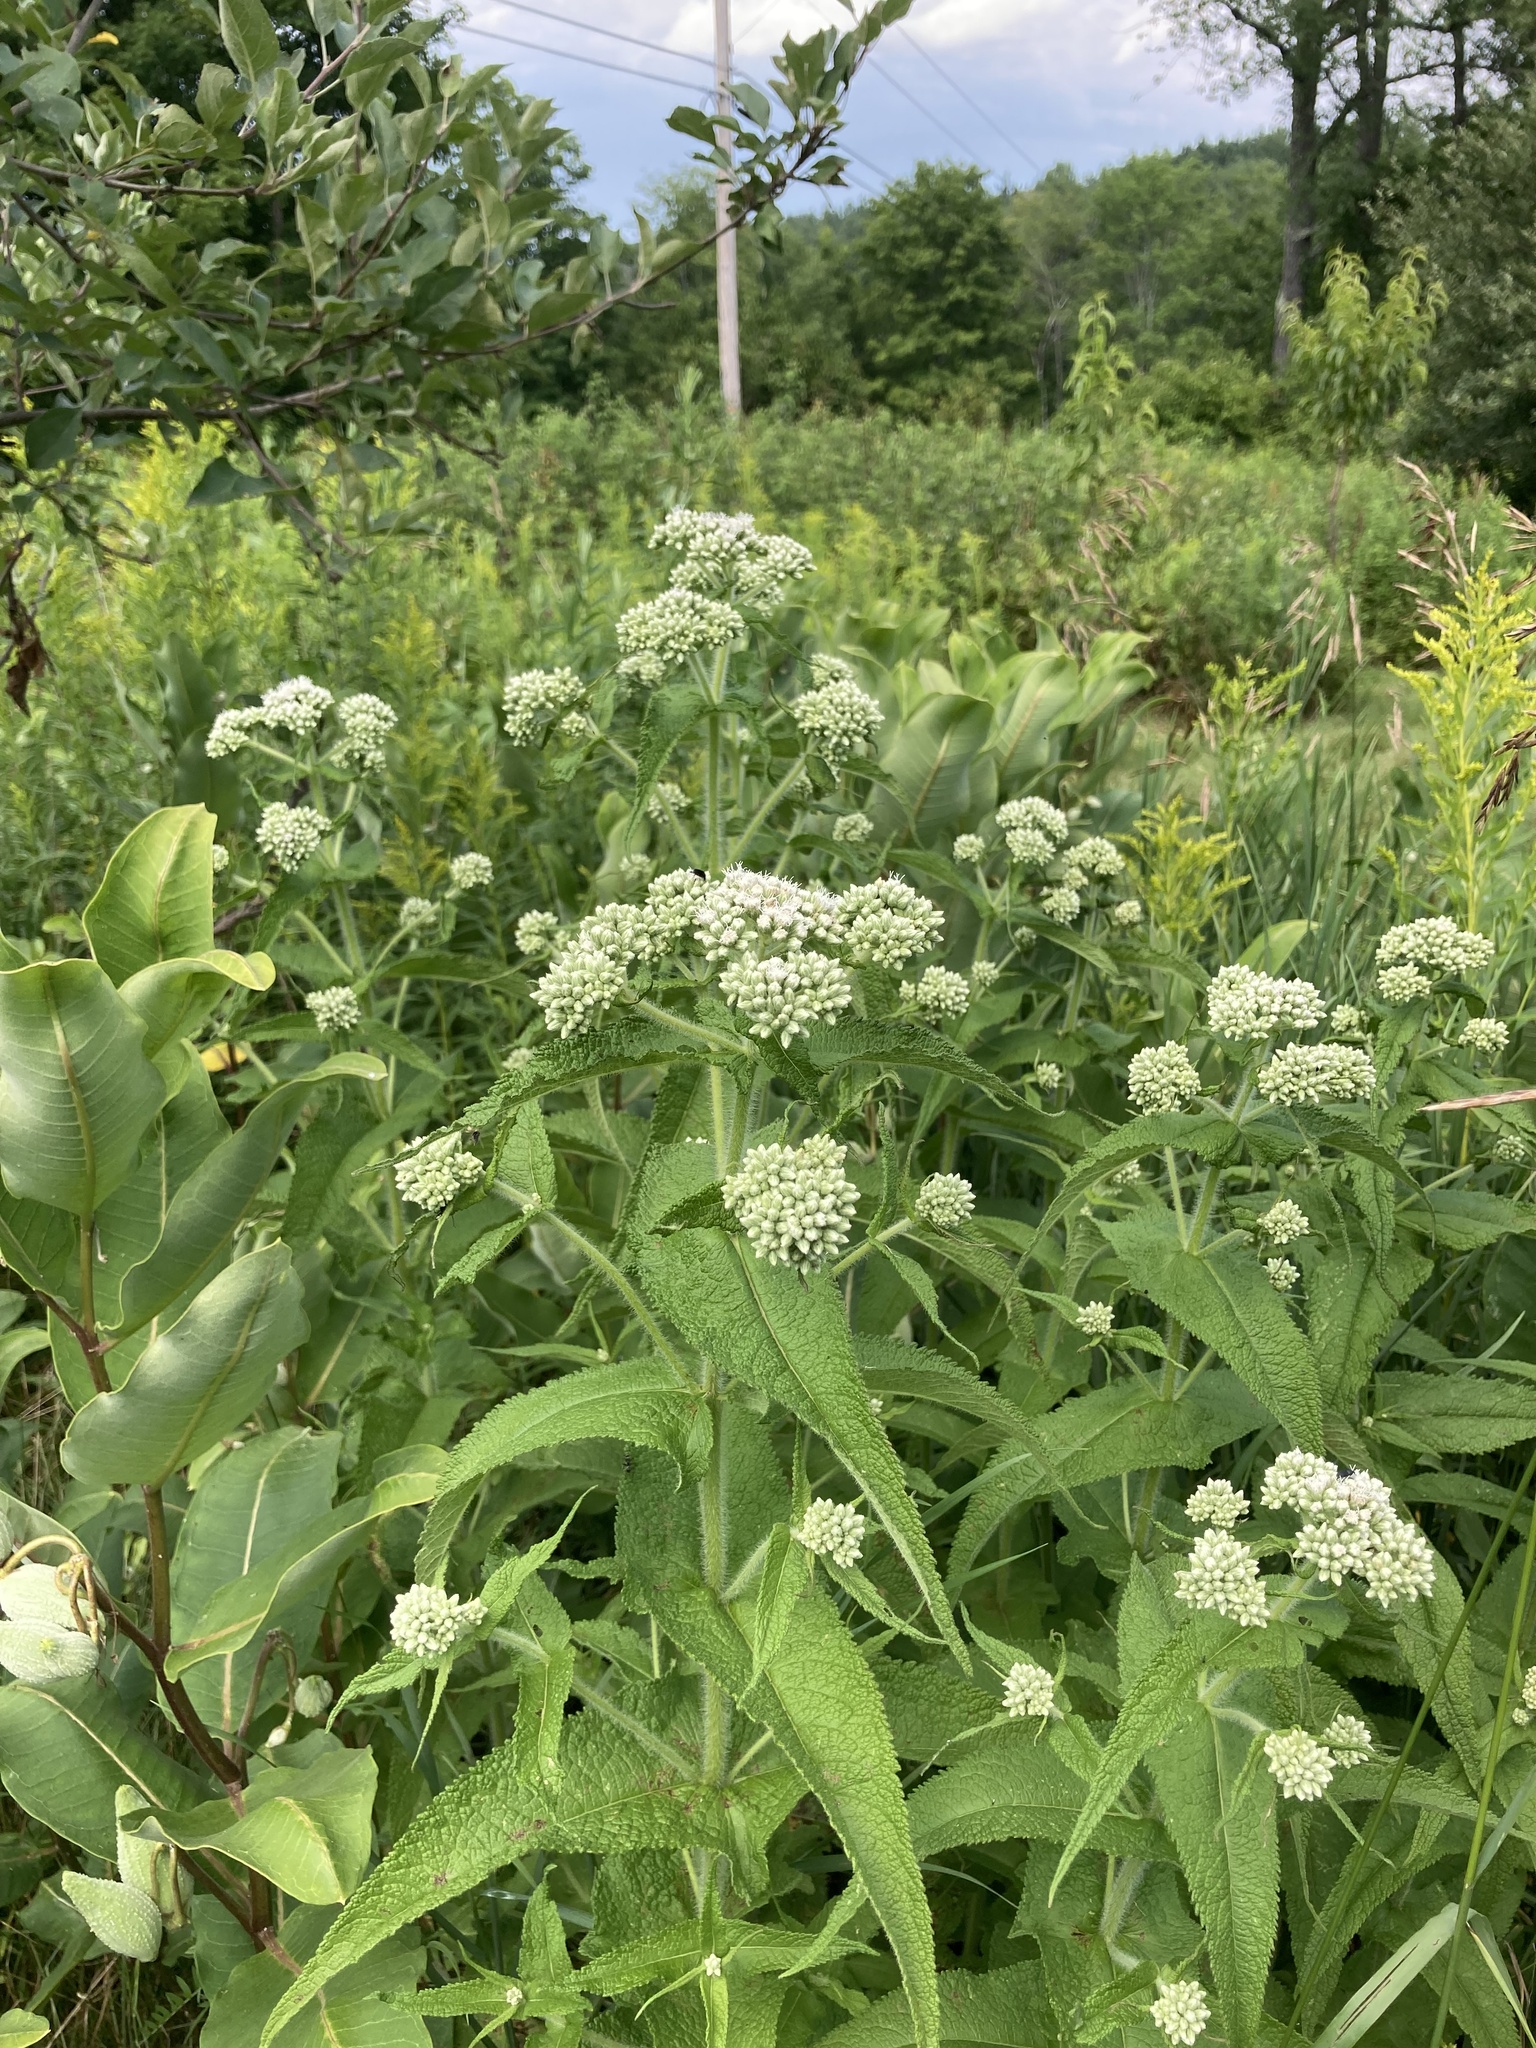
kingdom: Plantae
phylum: Tracheophyta
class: Magnoliopsida
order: Asterales
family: Asteraceae
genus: Eupatorium
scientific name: Eupatorium perfoliatum
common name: Boneset
